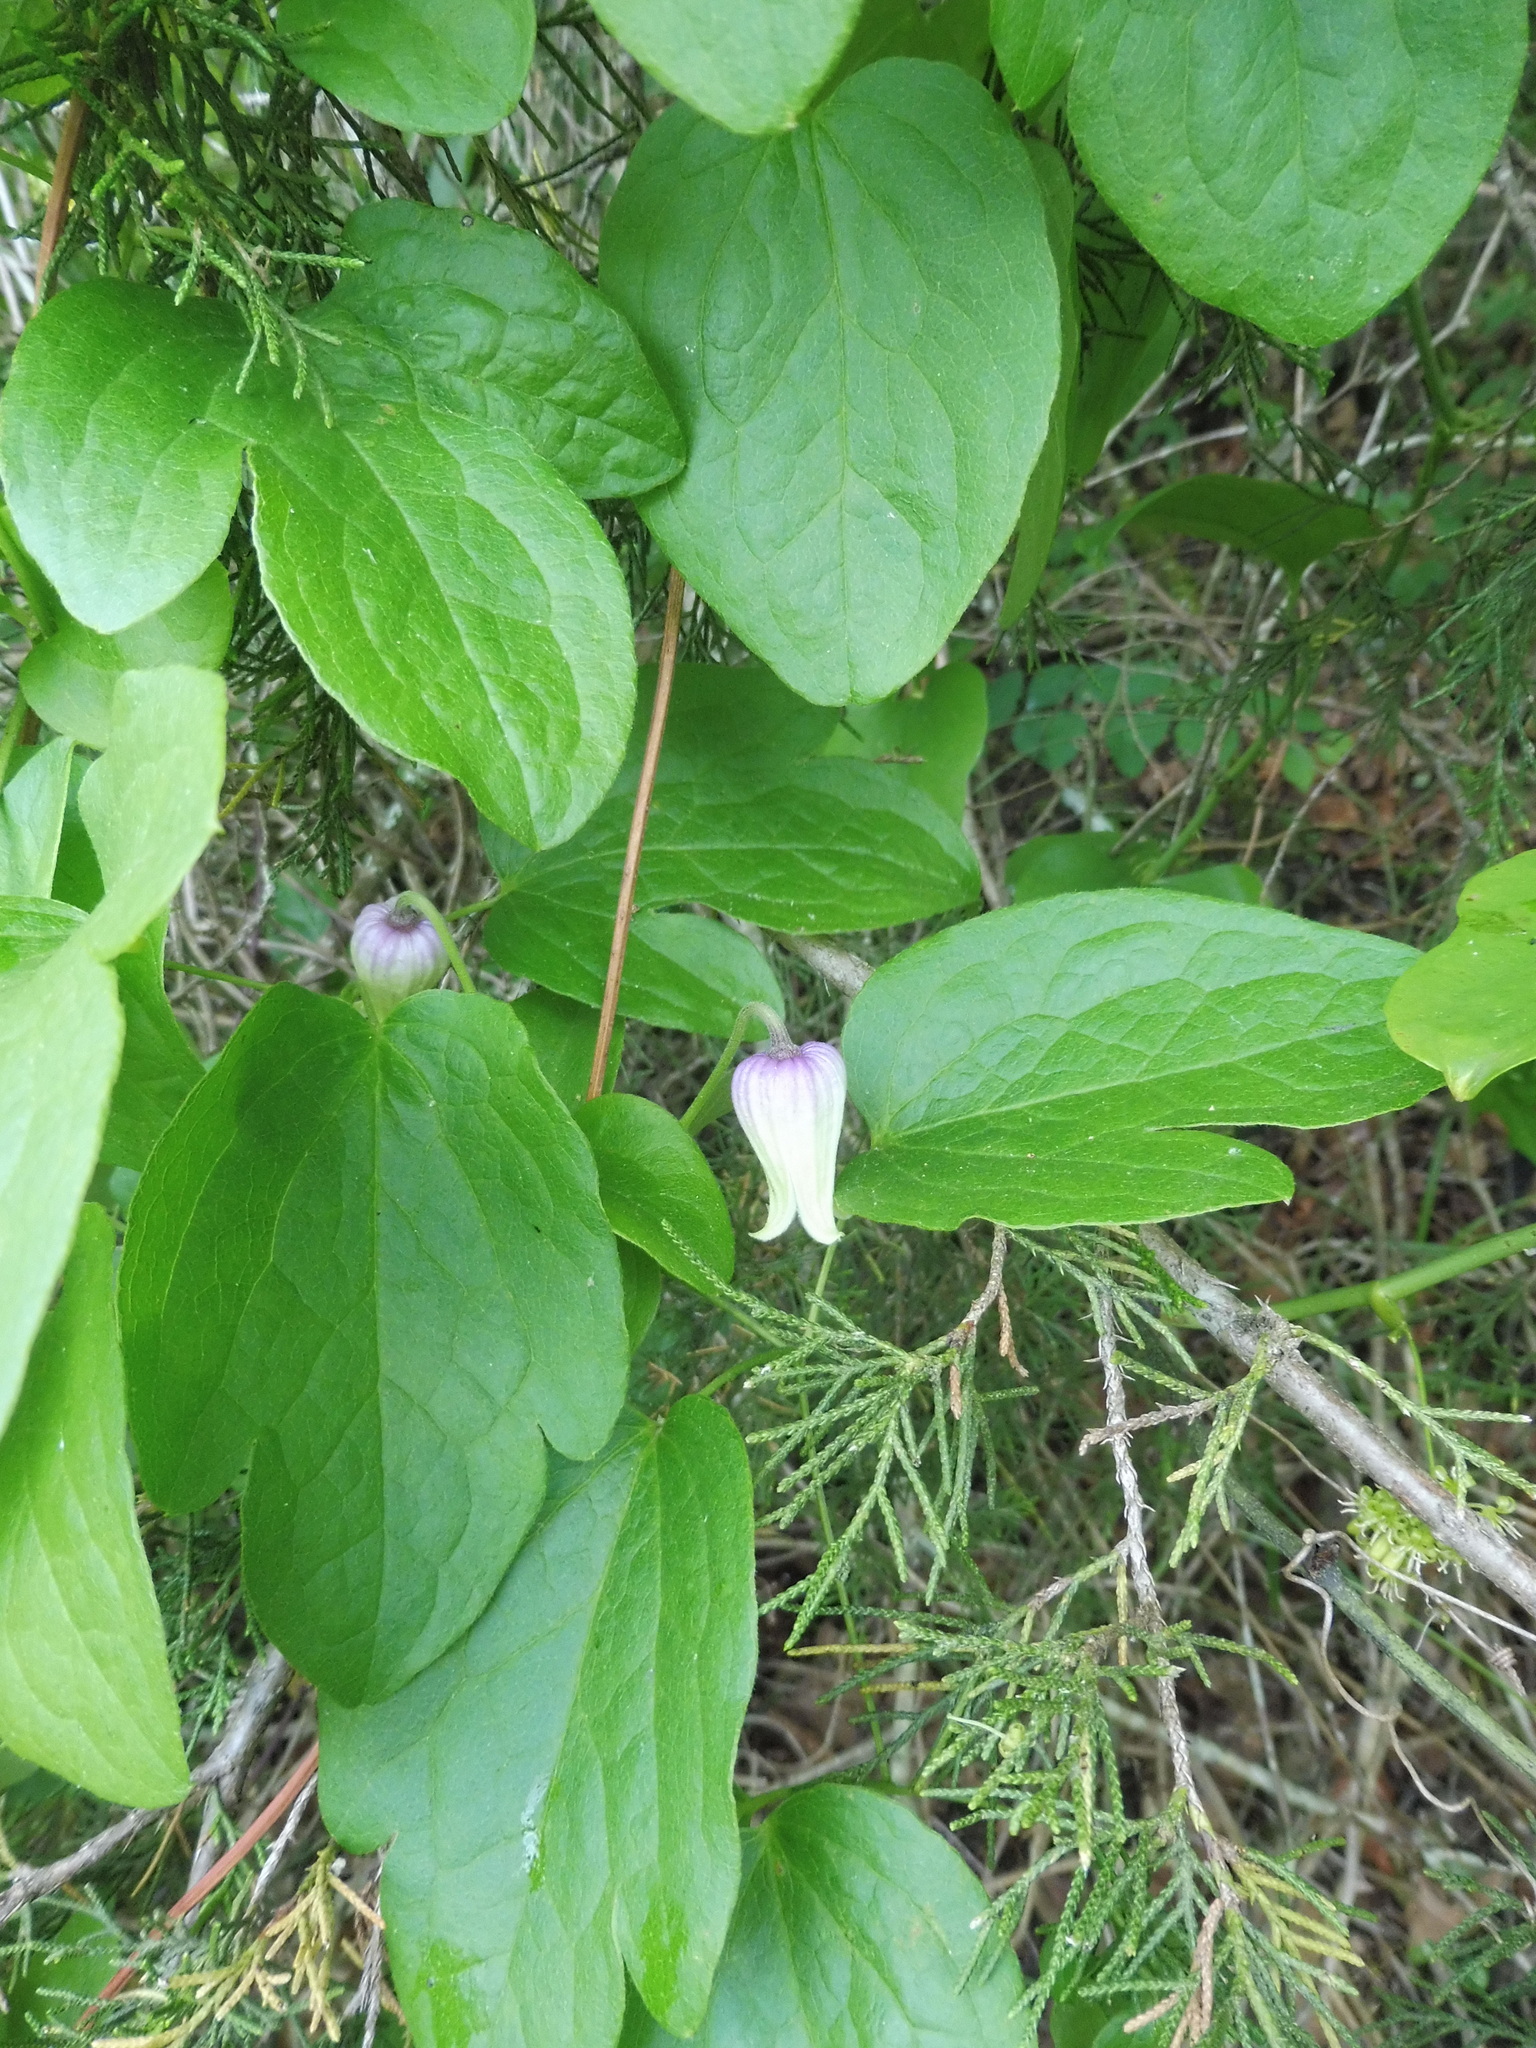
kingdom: Plantae
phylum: Tracheophyta
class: Magnoliopsida
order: Ranunculales
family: Ranunculaceae
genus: Clematis
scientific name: Clematis ouachitensis
